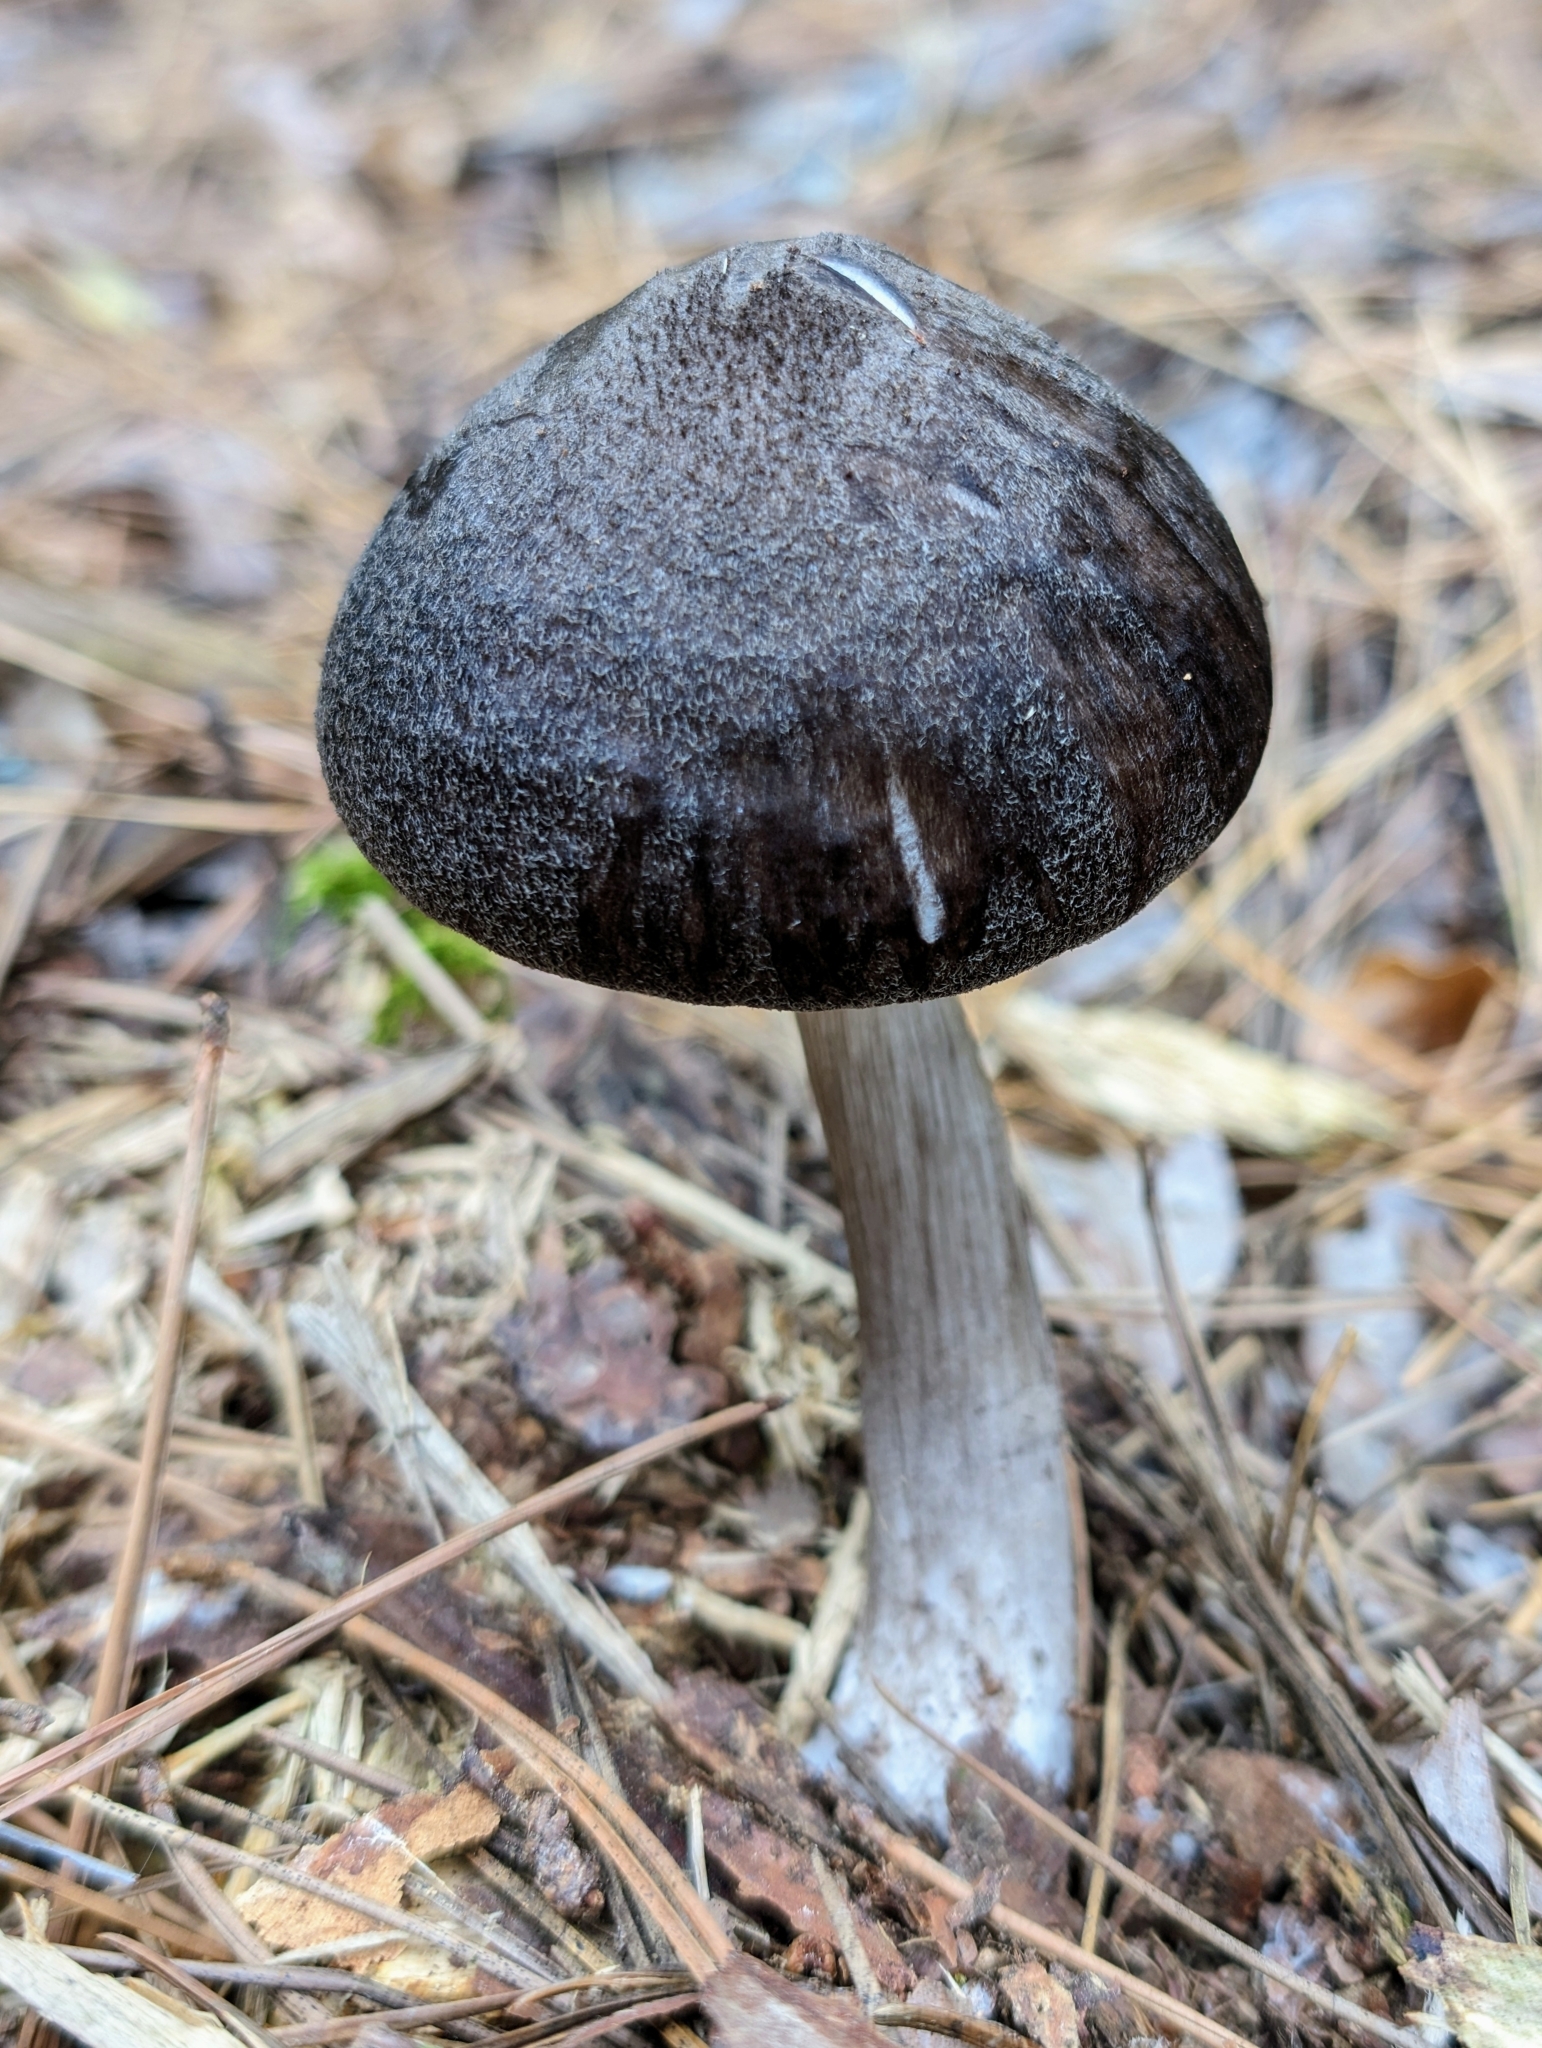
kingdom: Fungi
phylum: Basidiomycota
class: Agaricomycetes
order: Agaricales
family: Pluteaceae
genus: Pluteus
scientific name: Pluteus atromarginatus
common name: Blackedged shield
